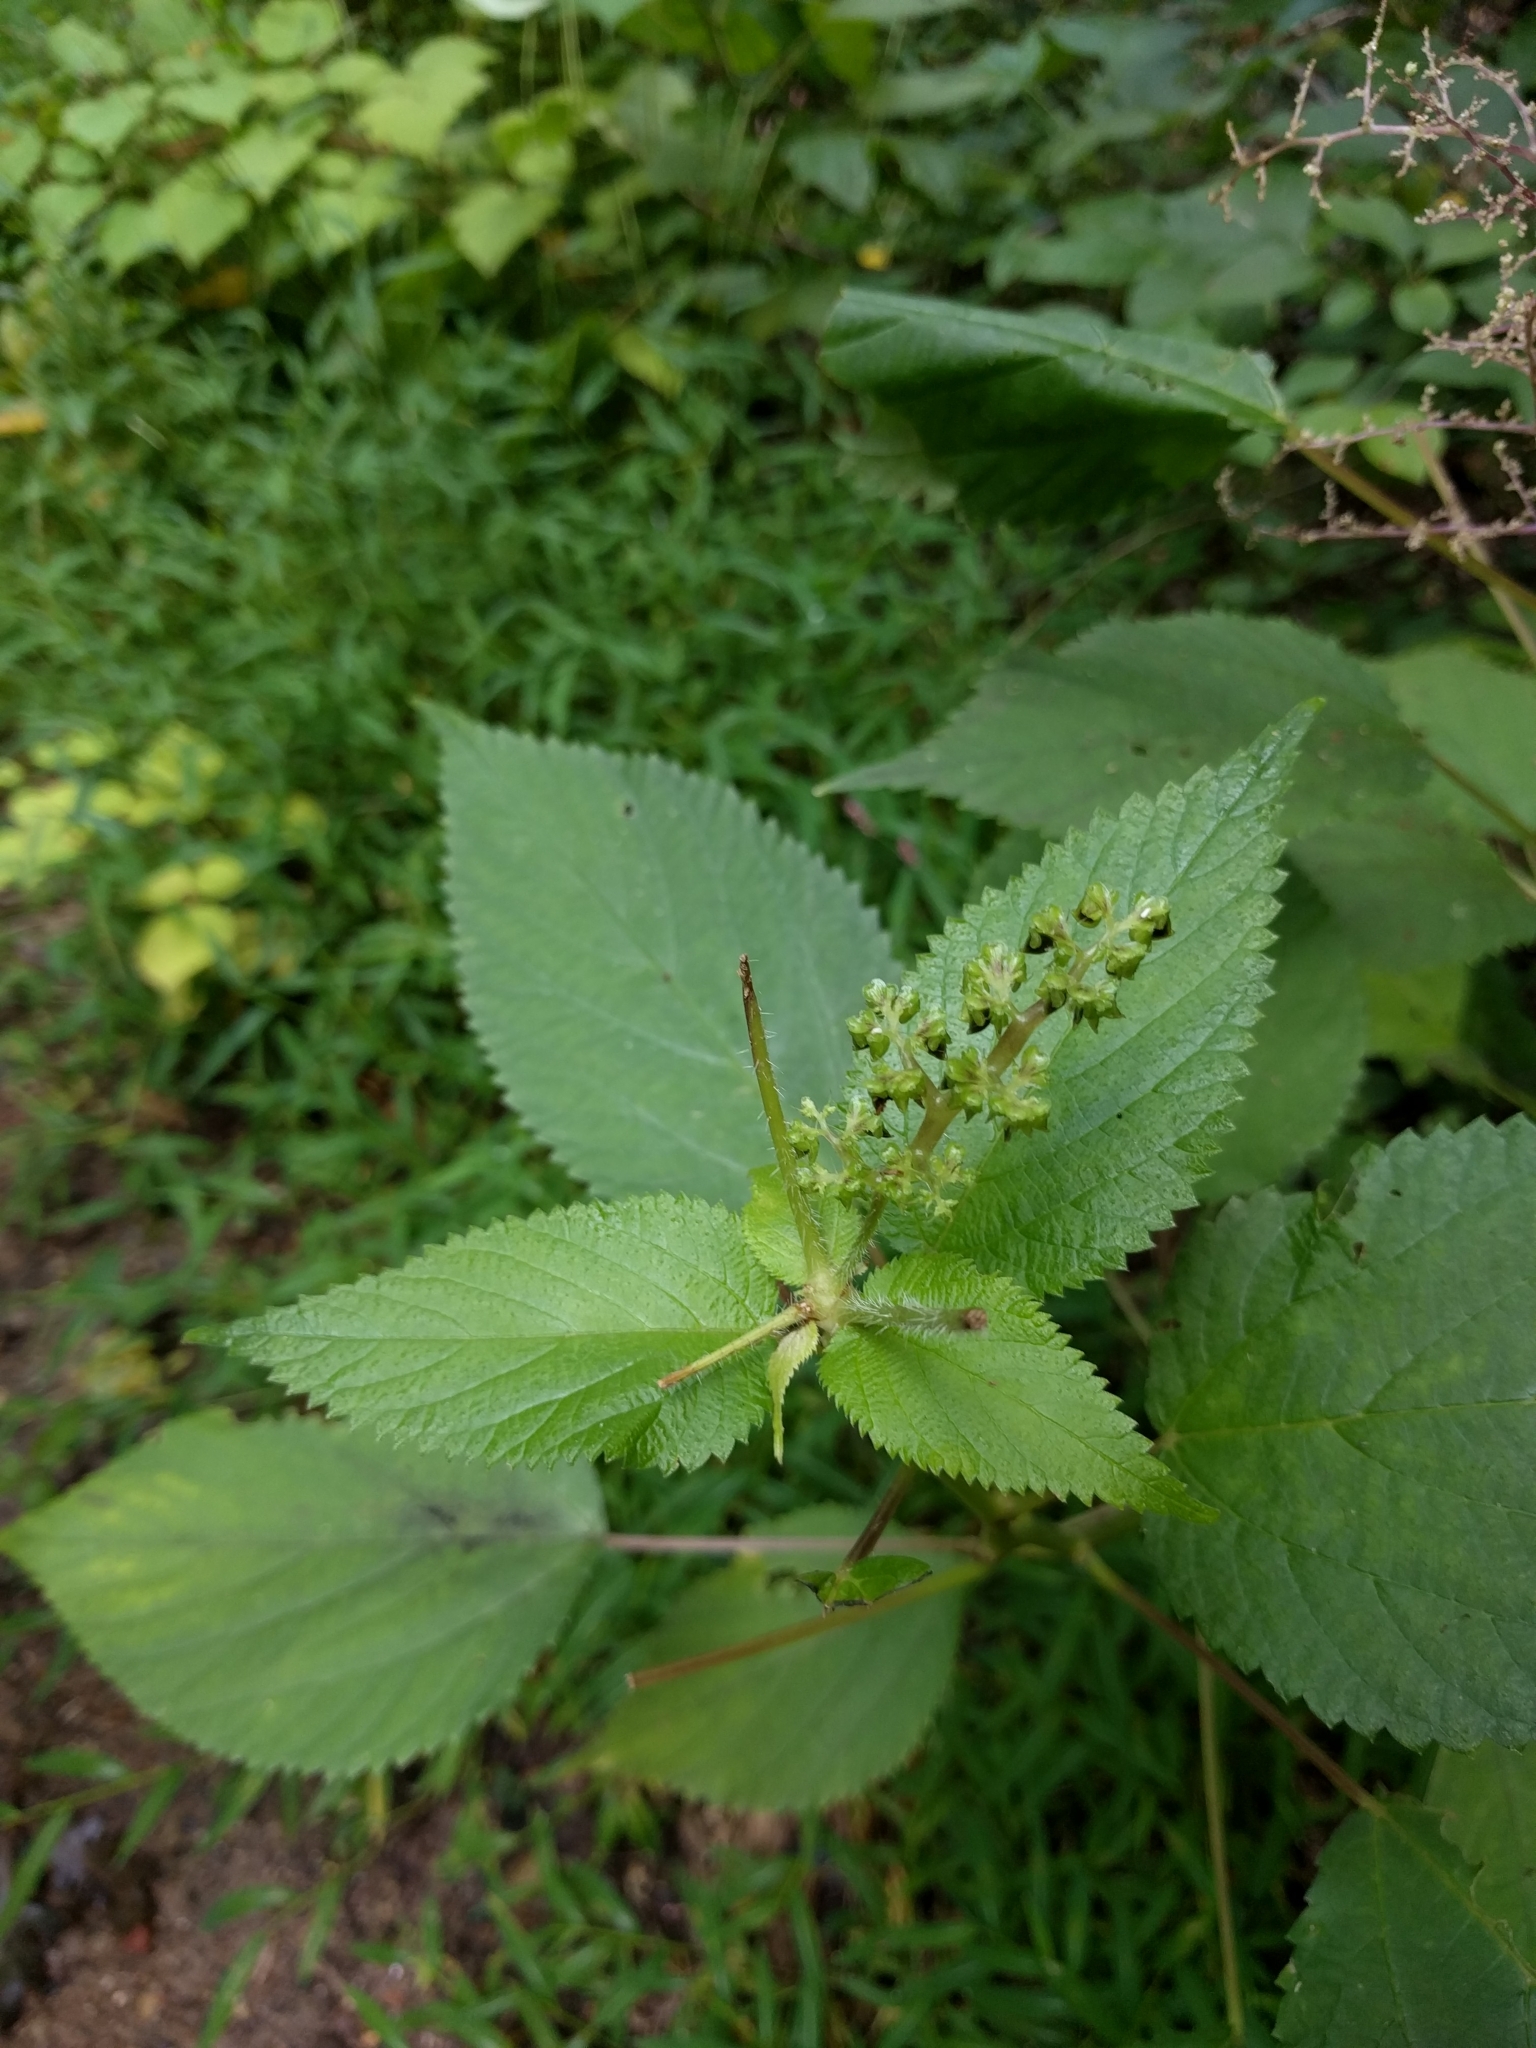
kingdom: Plantae
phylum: Tracheophyta
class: Magnoliopsida
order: Rosales
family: Urticaceae
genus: Laportea
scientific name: Laportea canadensis
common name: Canada nettle
